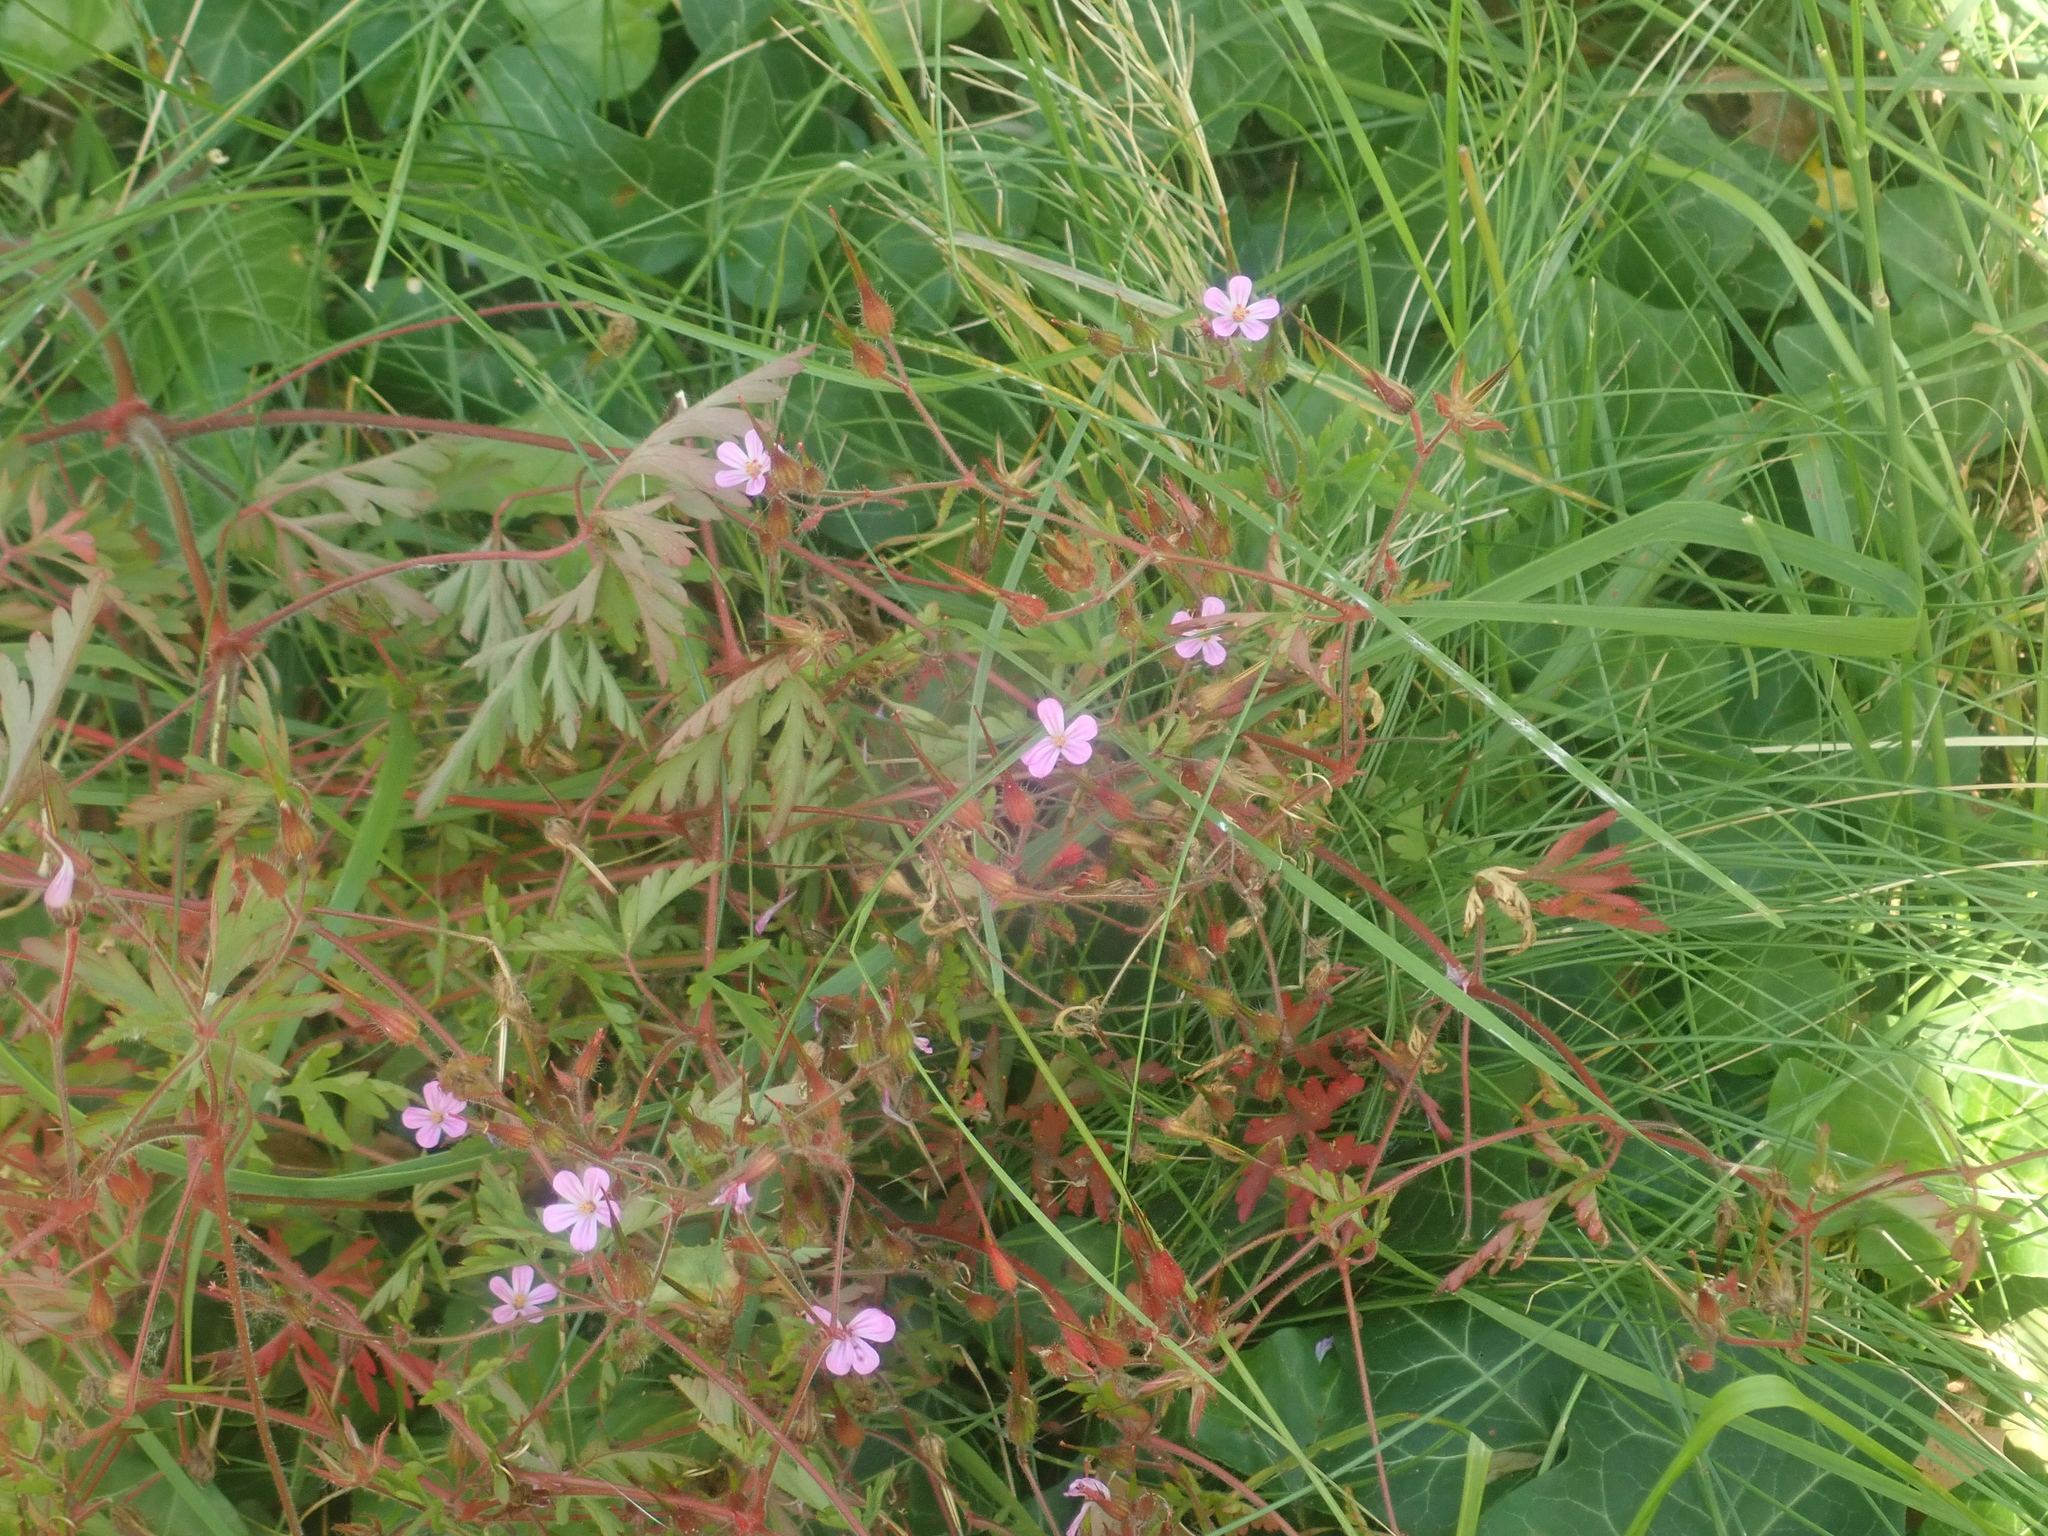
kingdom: Plantae
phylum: Tracheophyta
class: Magnoliopsida
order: Geraniales
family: Geraniaceae
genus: Geranium
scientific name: Geranium robertianum
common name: Herb-robert
